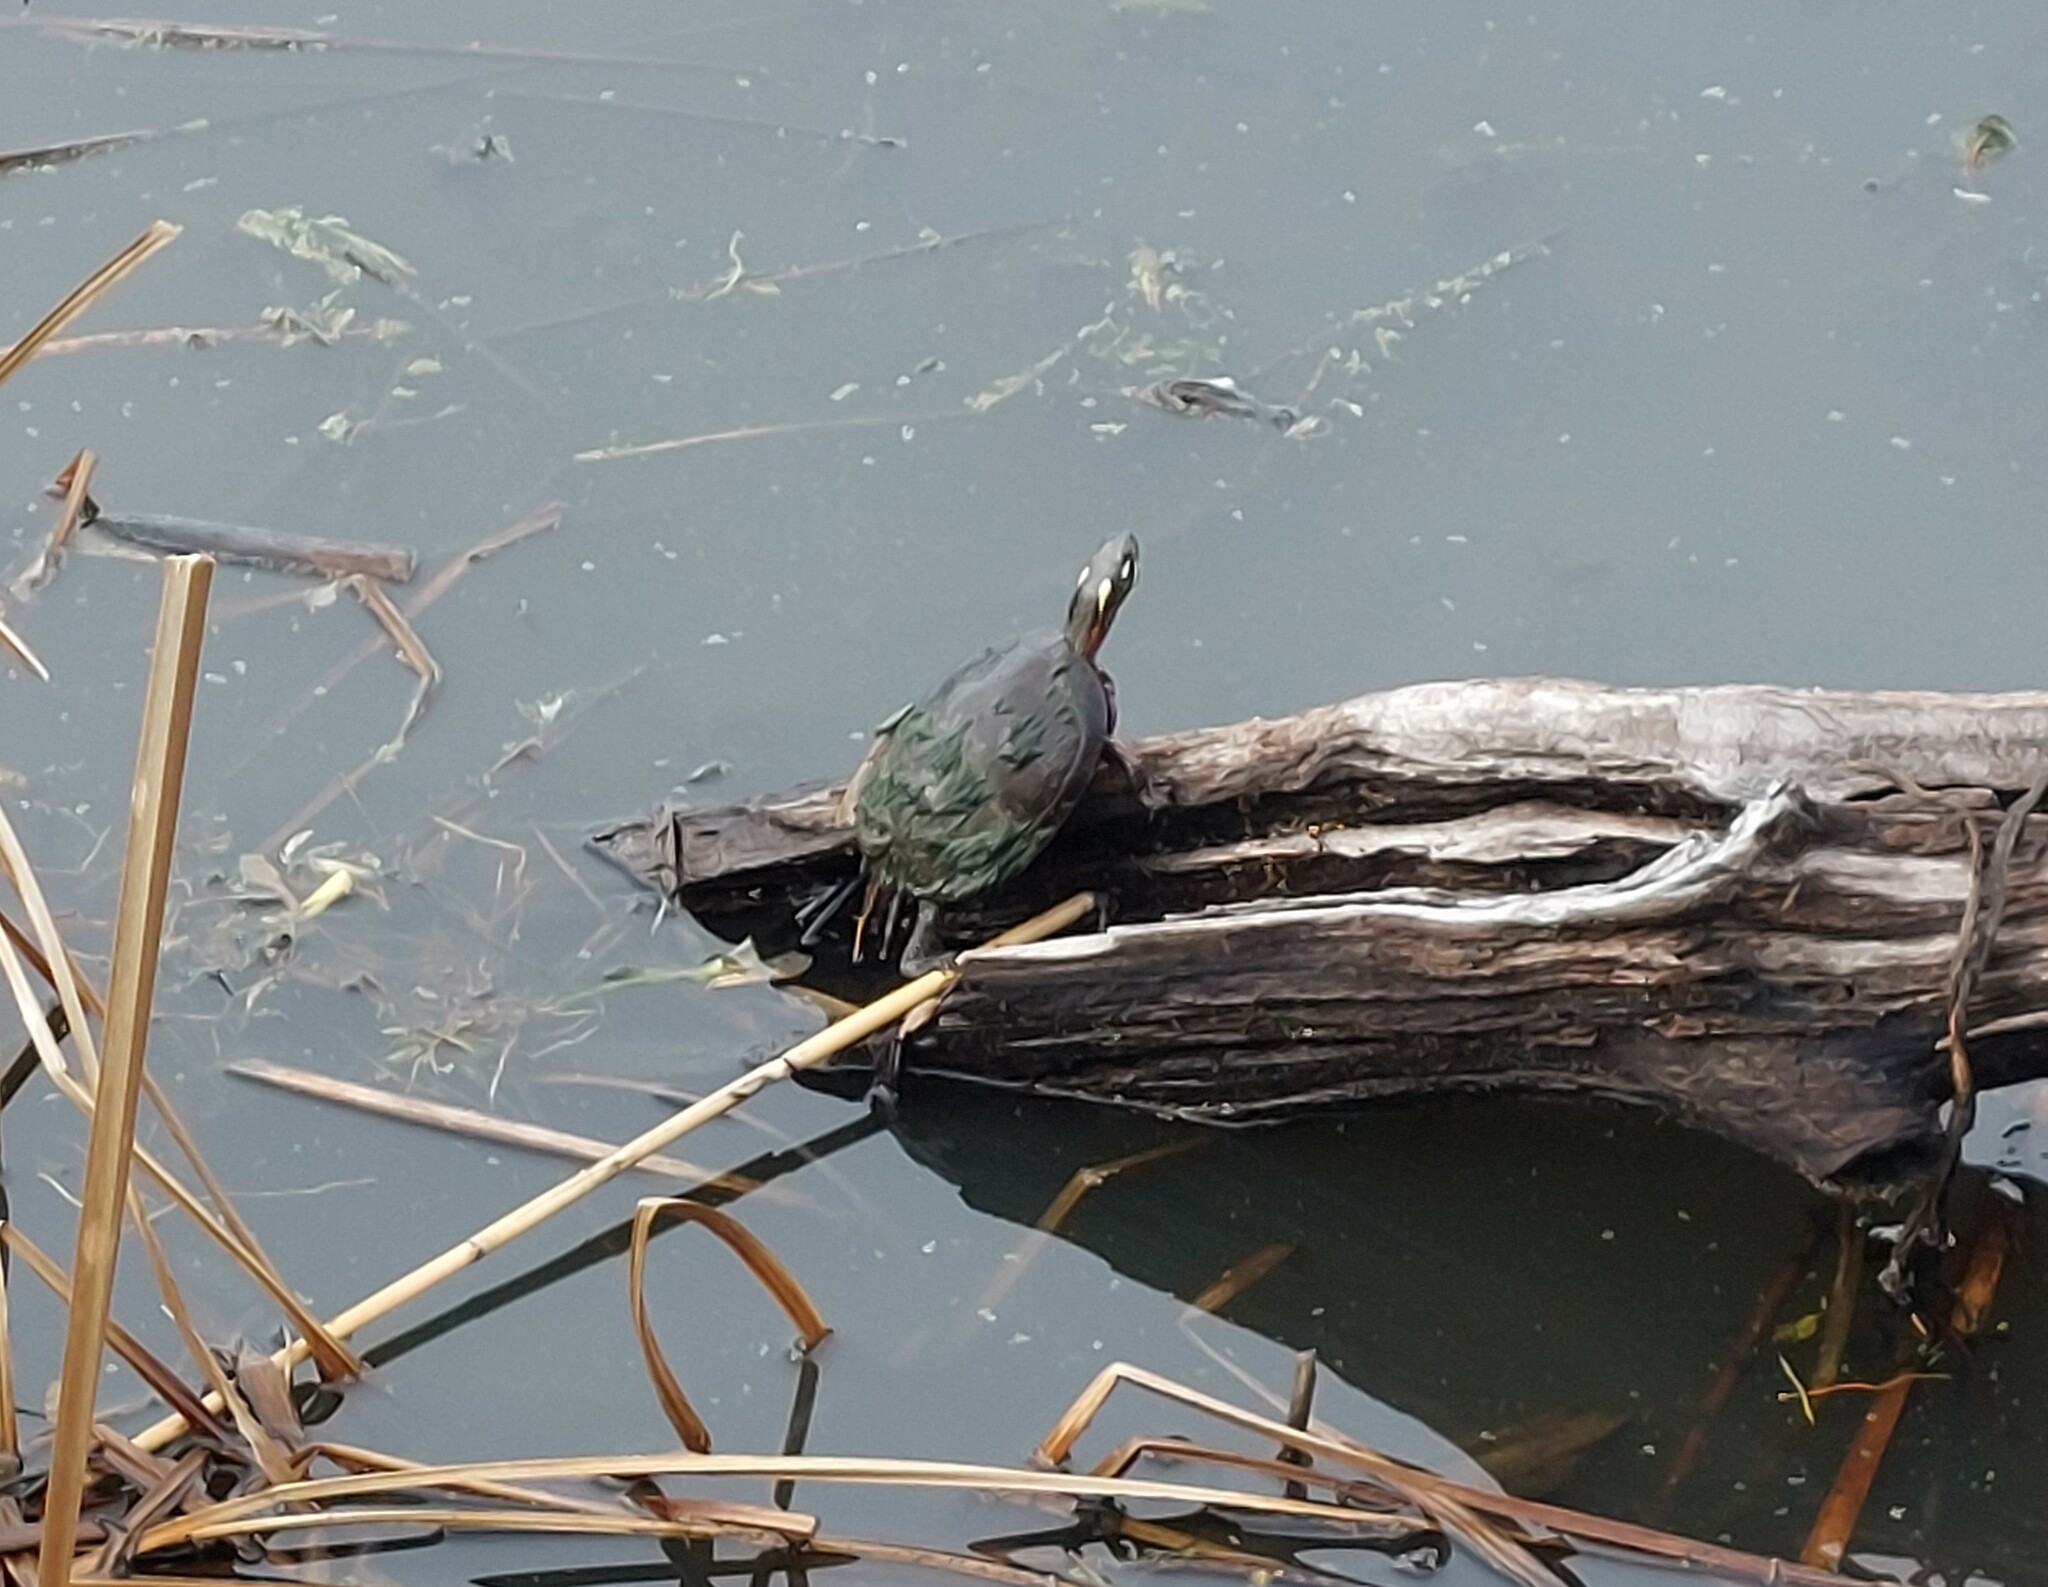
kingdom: Animalia
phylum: Chordata
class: Testudines
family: Emydidae
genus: Chrysemys
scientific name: Chrysemys picta
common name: Painted turtle
